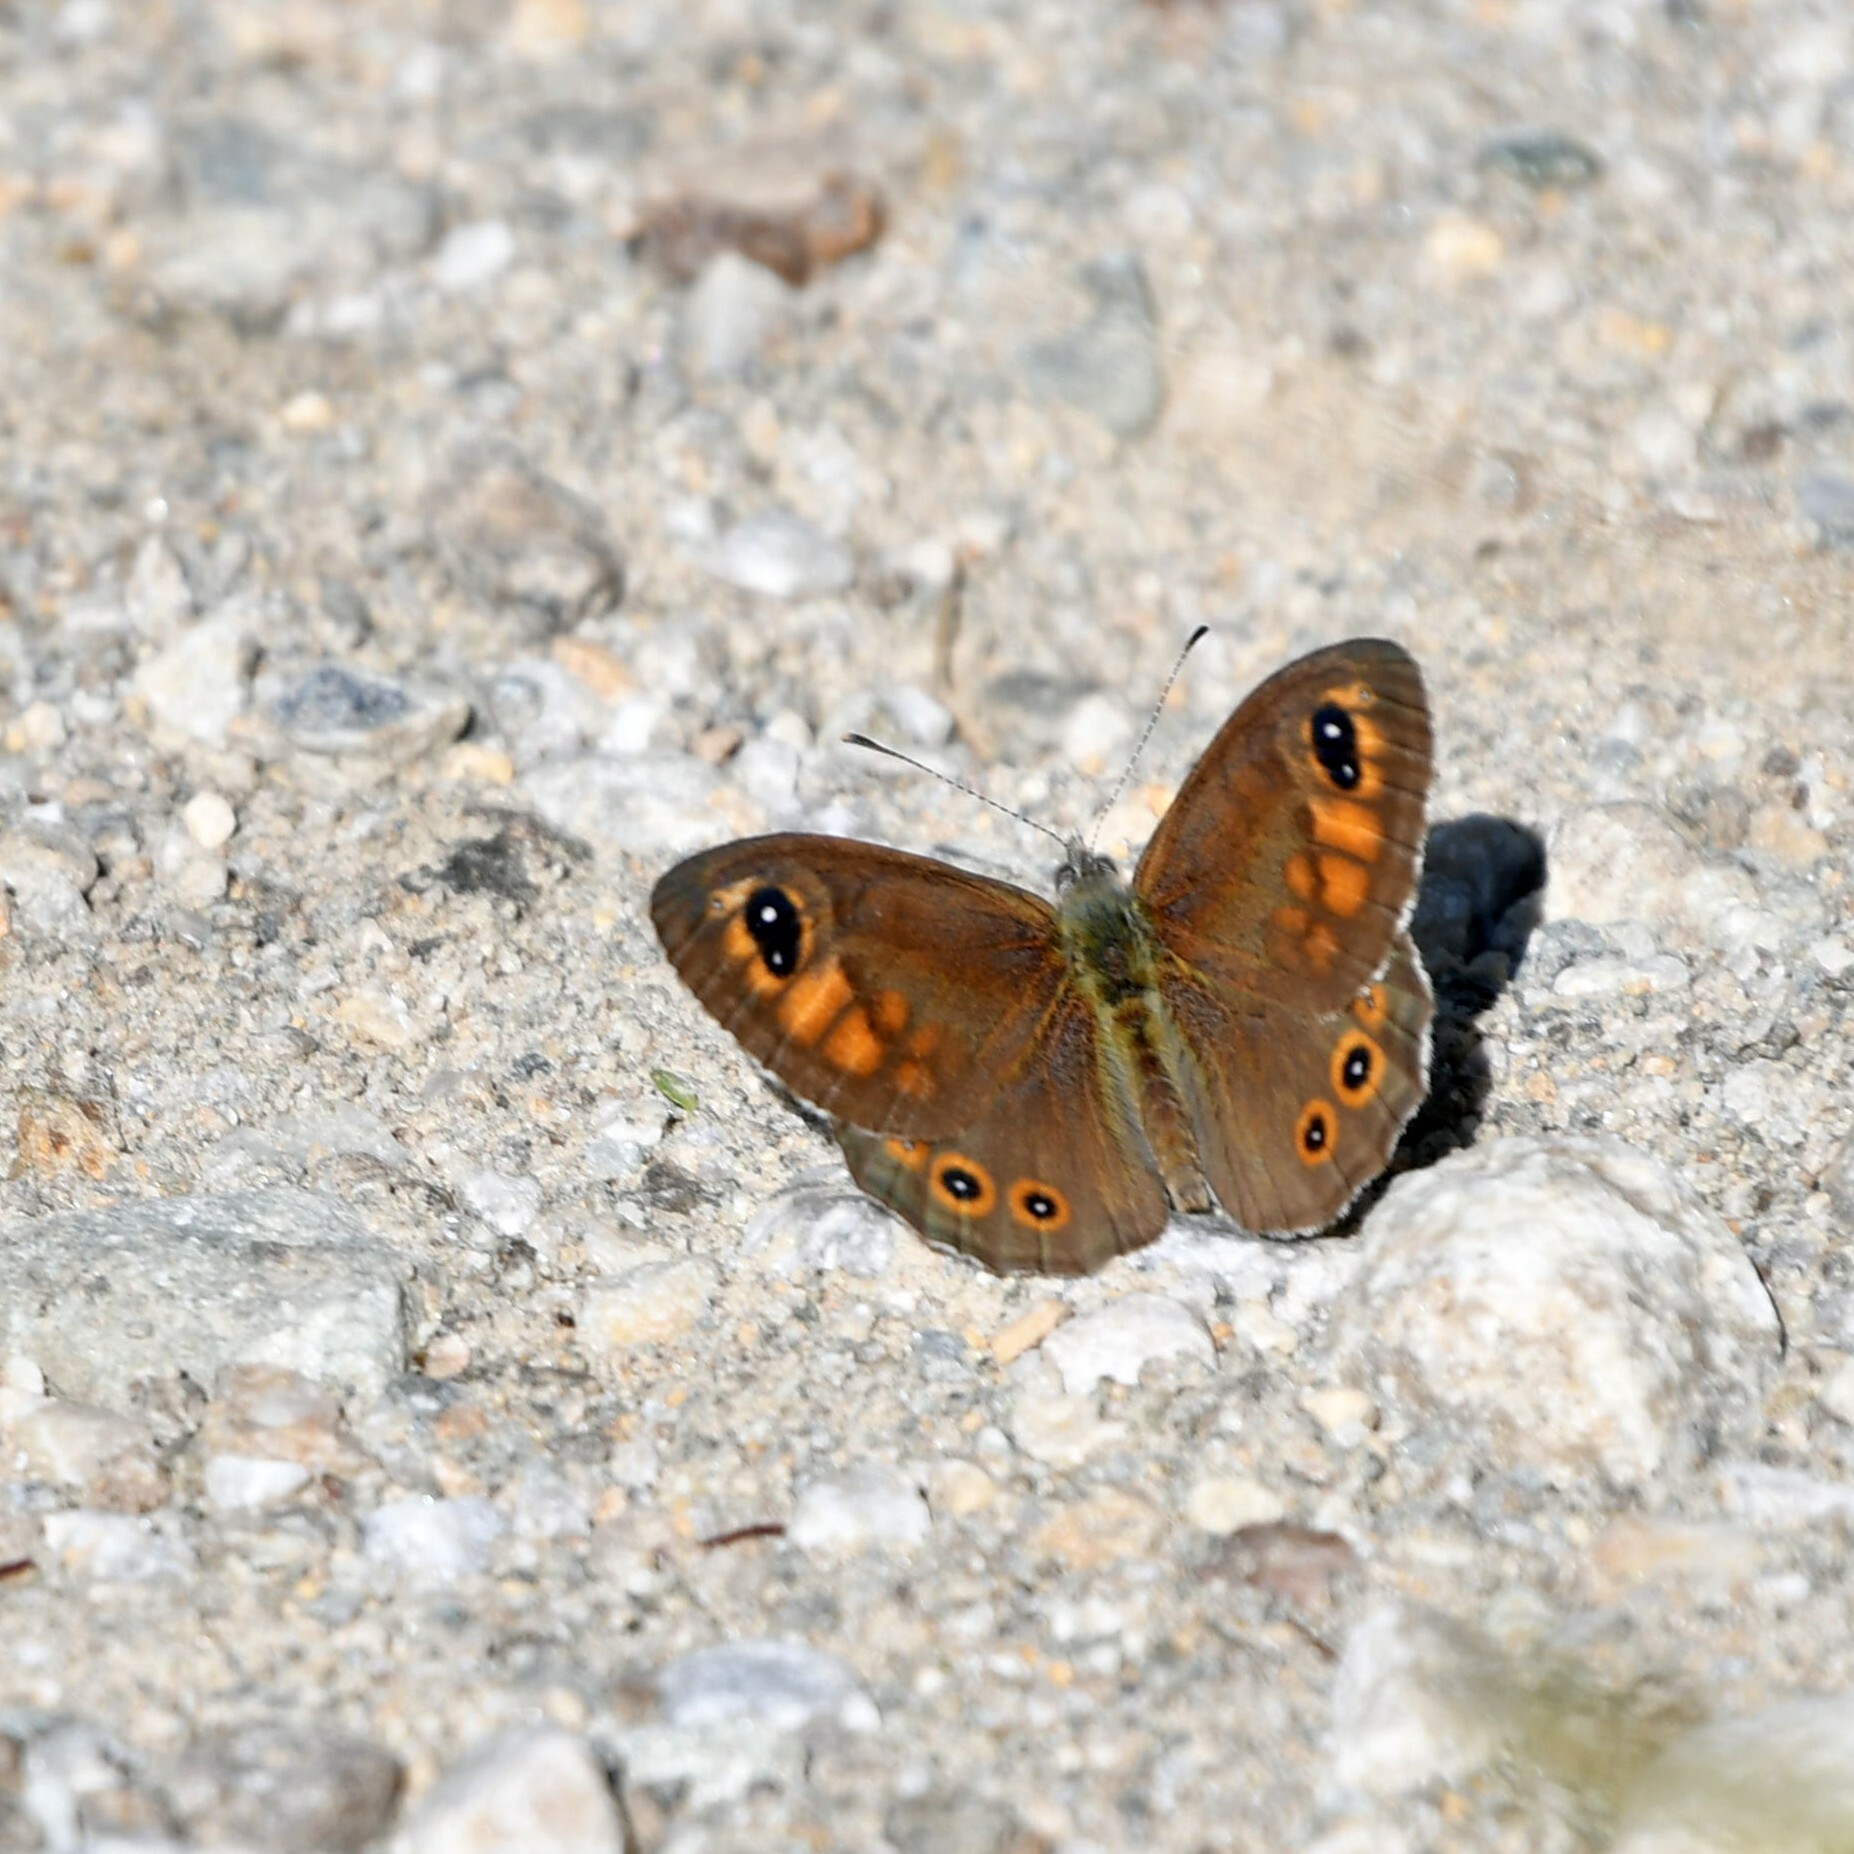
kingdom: Animalia
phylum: Arthropoda
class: Insecta
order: Lepidoptera
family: Nymphalidae
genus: Pararge
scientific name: Pararge Lasiommata maera
